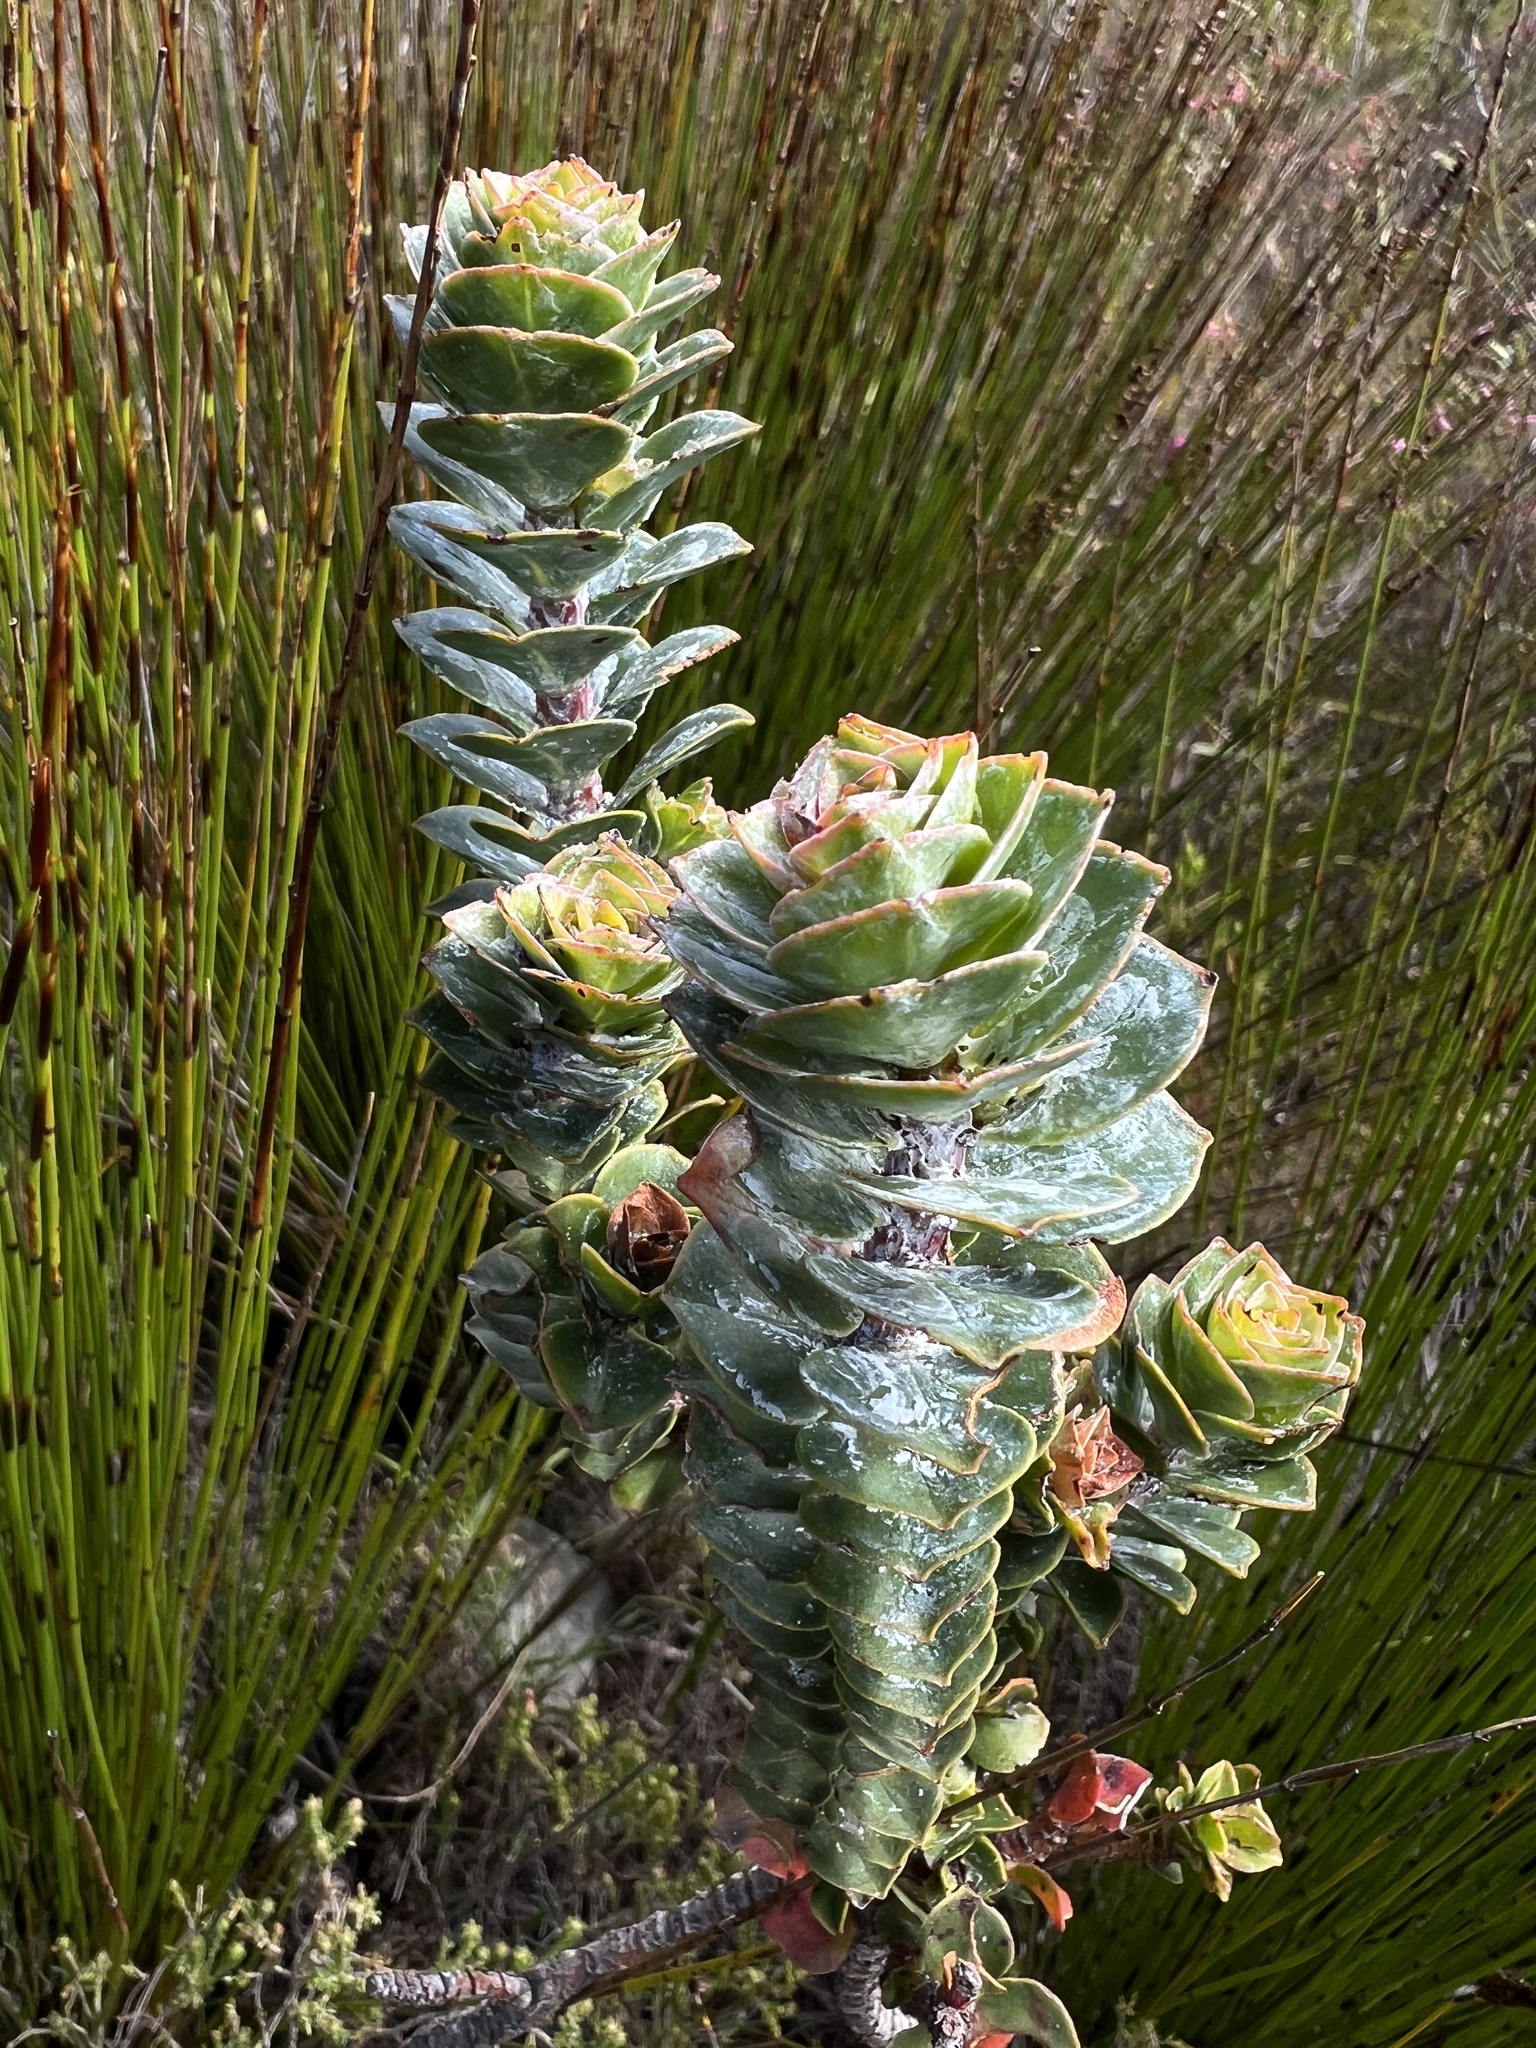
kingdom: Plantae
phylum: Tracheophyta
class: Magnoliopsida
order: Myrtales
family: Penaeaceae
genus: Saltera
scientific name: Saltera sarcocolla
